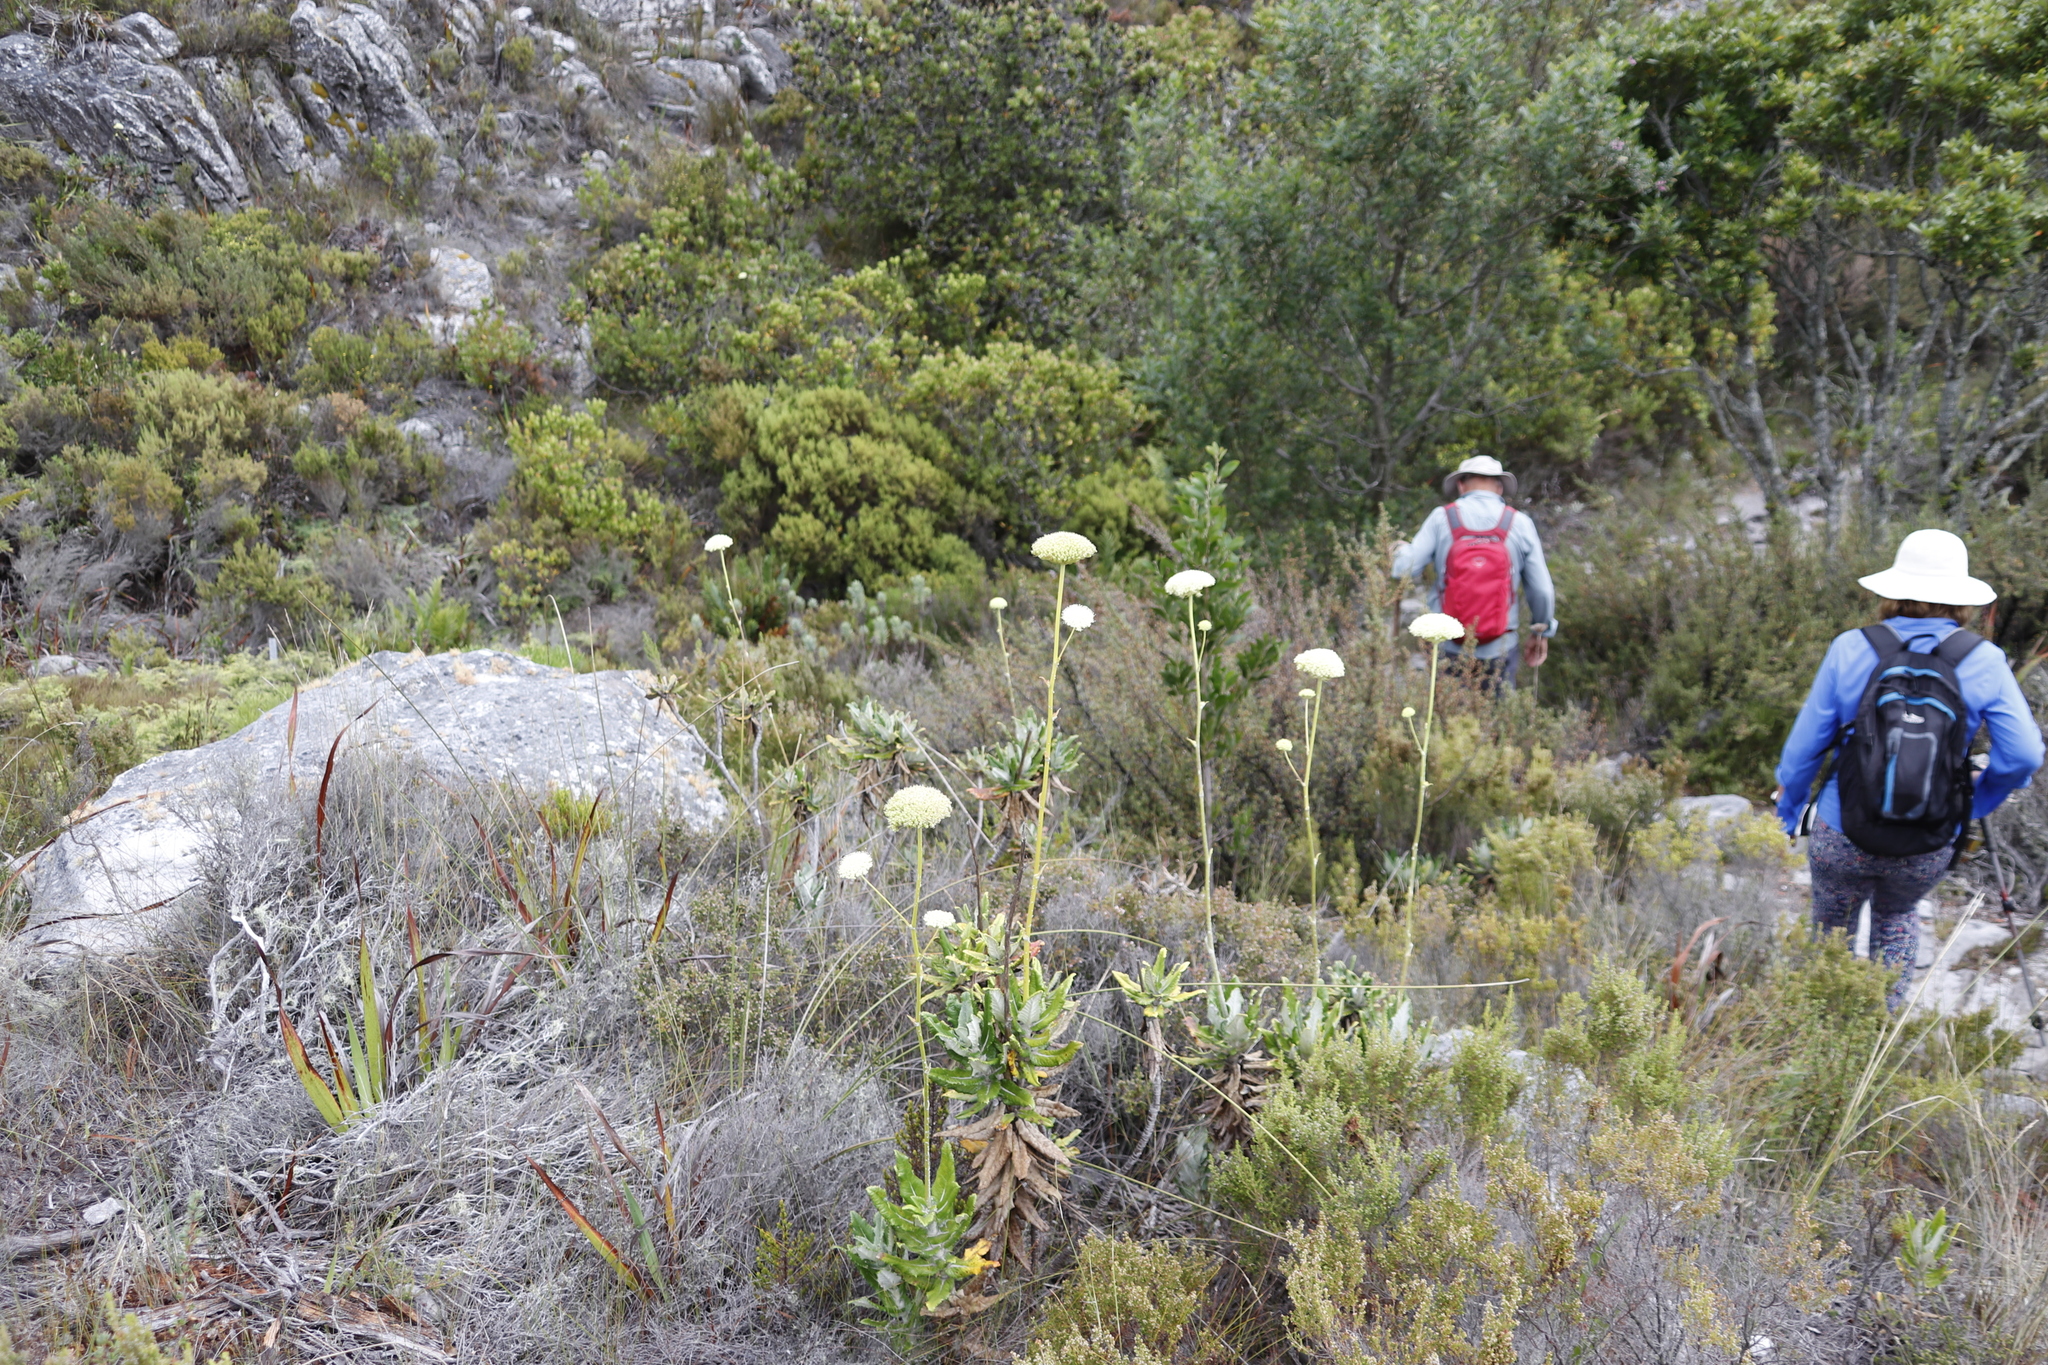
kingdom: Plantae
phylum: Tracheophyta
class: Magnoliopsida
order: Apiales
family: Apiaceae
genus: Hermas
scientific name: Hermas villosa
